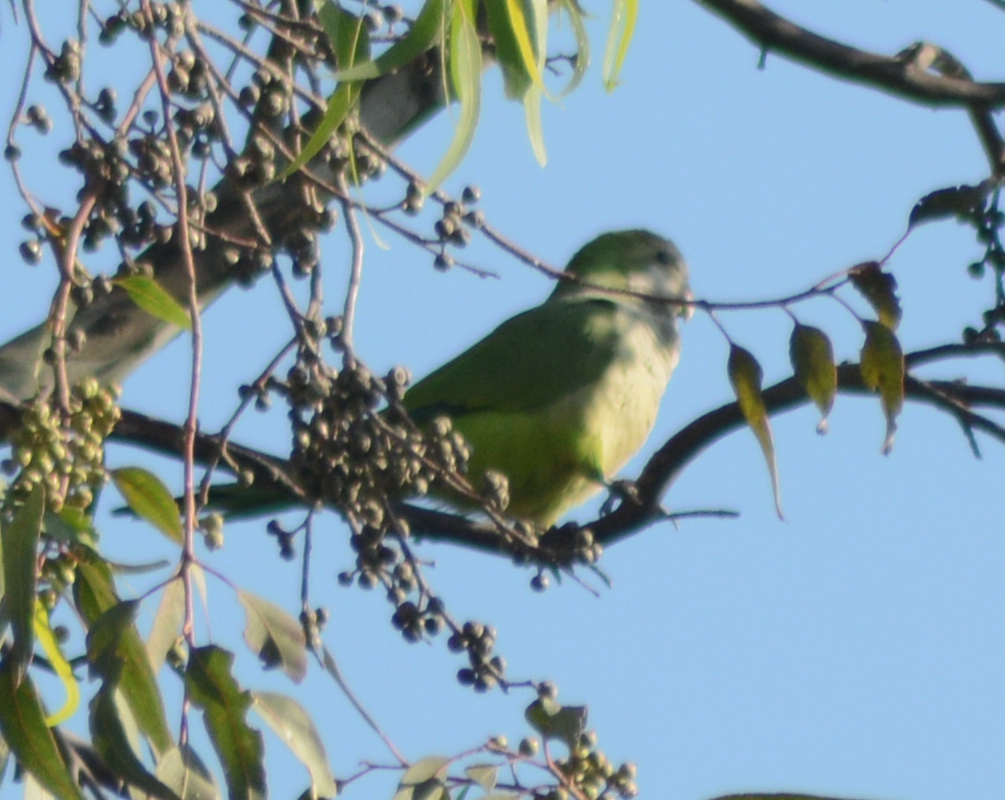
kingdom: Animalia
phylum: Chordata
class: Aves
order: Psittaciformes
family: Psittacidae
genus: Myiopsitta
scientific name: Myiopsitta monachus
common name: Monk parakeet
